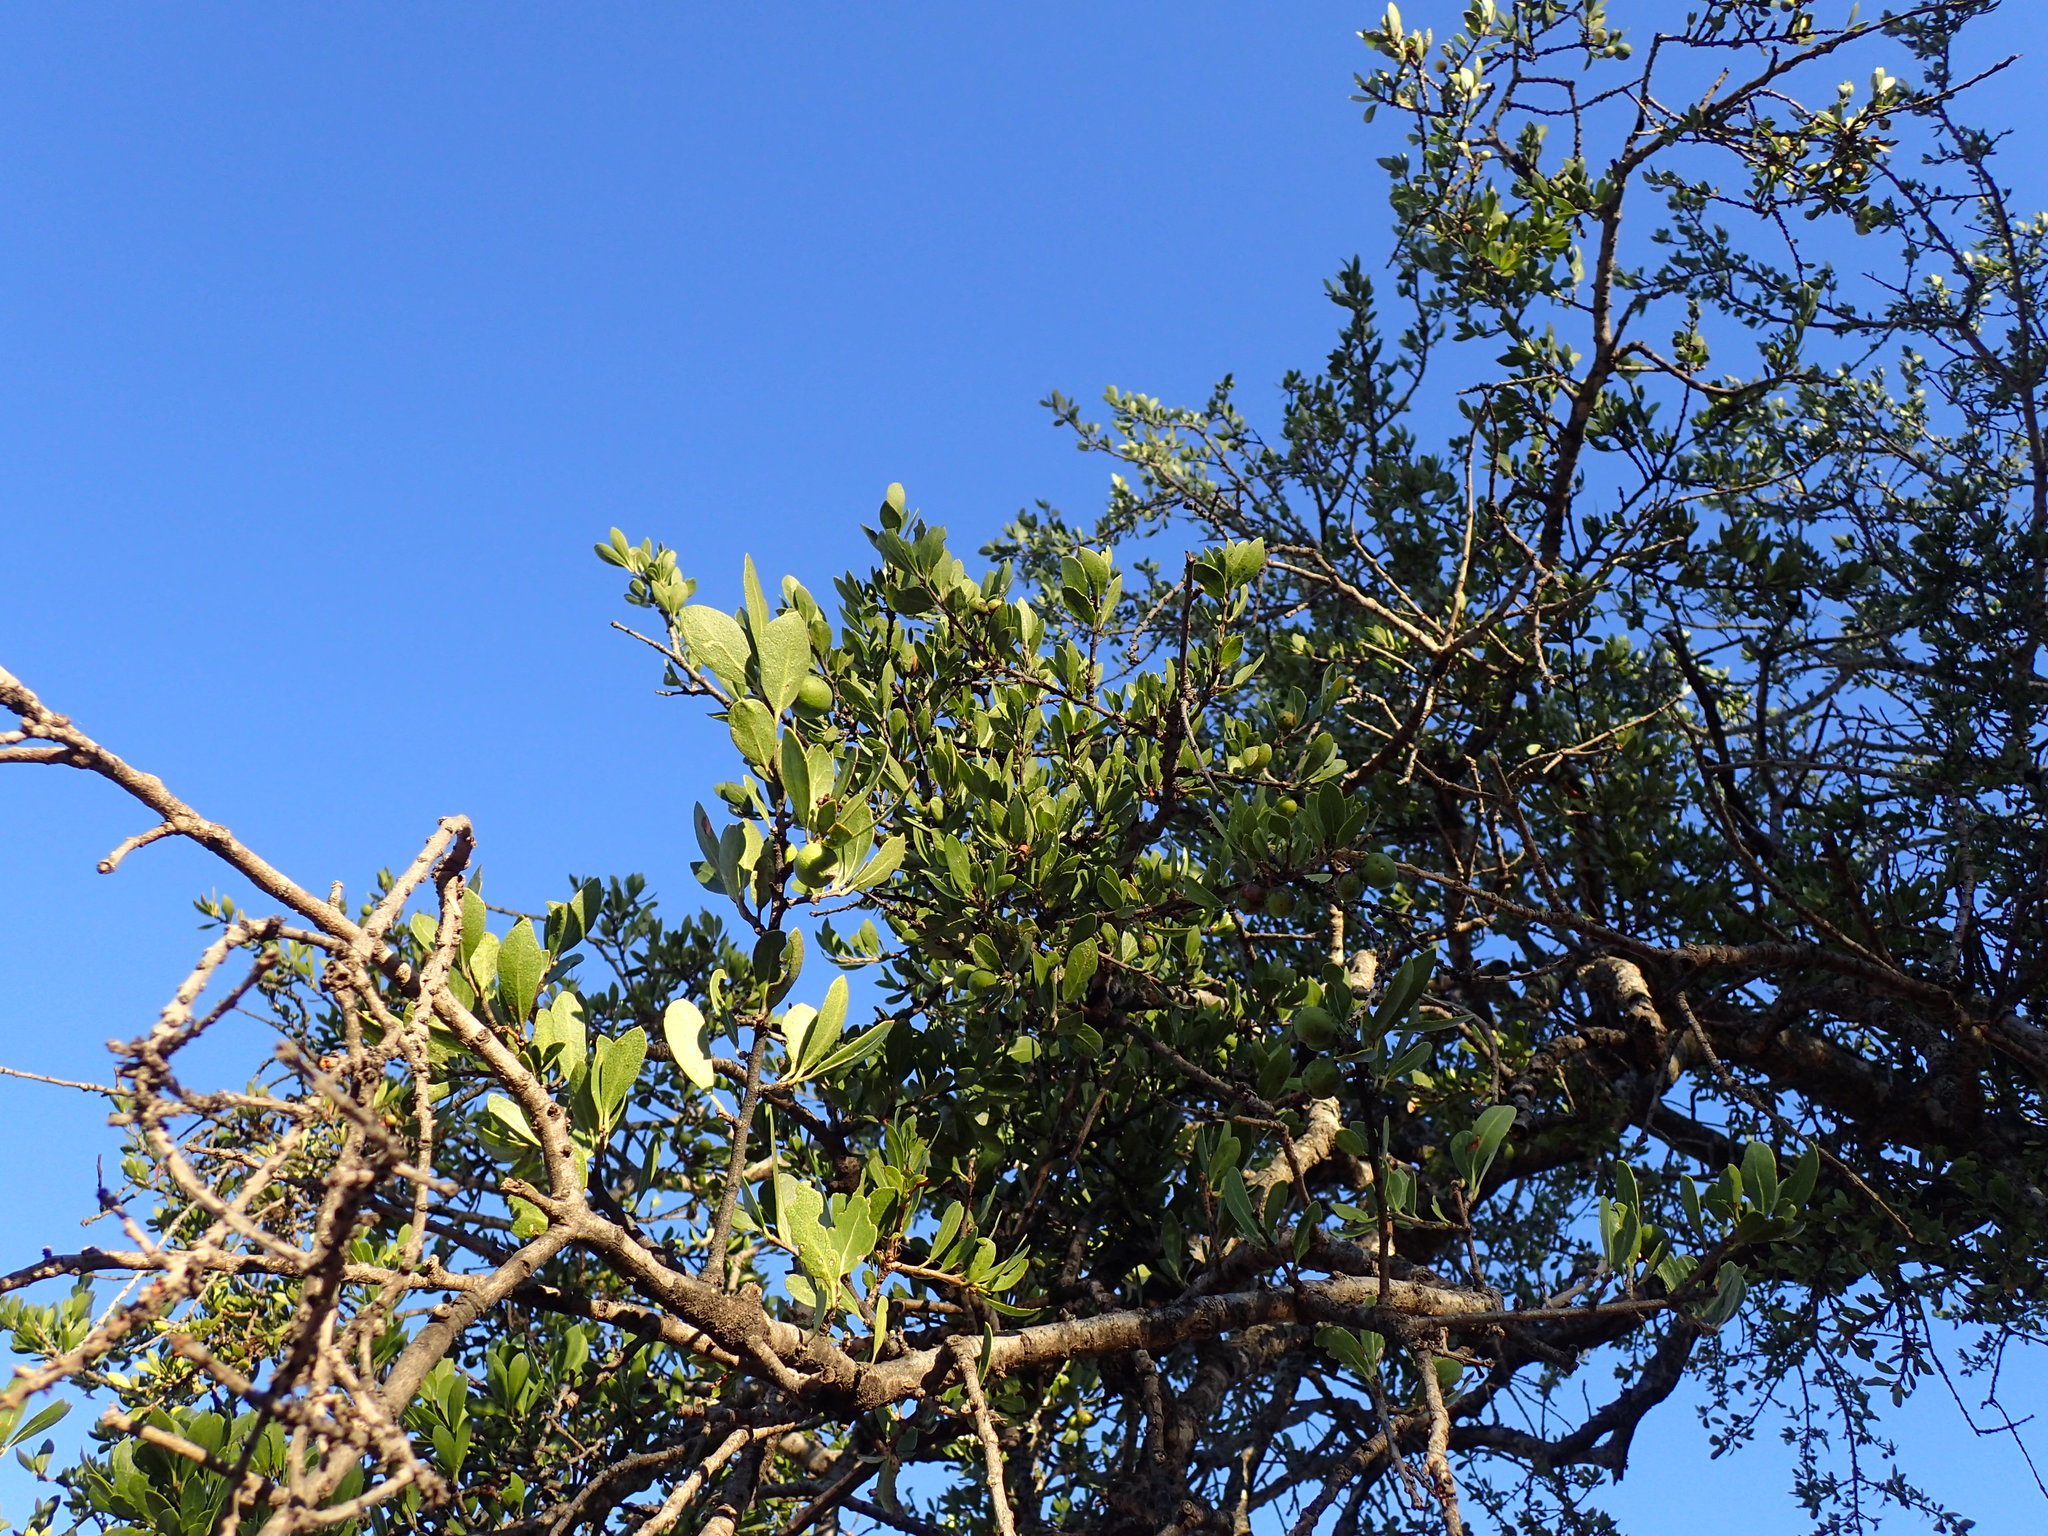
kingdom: Plantae
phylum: Tracheophyta
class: Magnoliopsida
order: Celastrales
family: Celastraceae
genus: Elaeodendron
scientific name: Elaeodendron transvaalense
